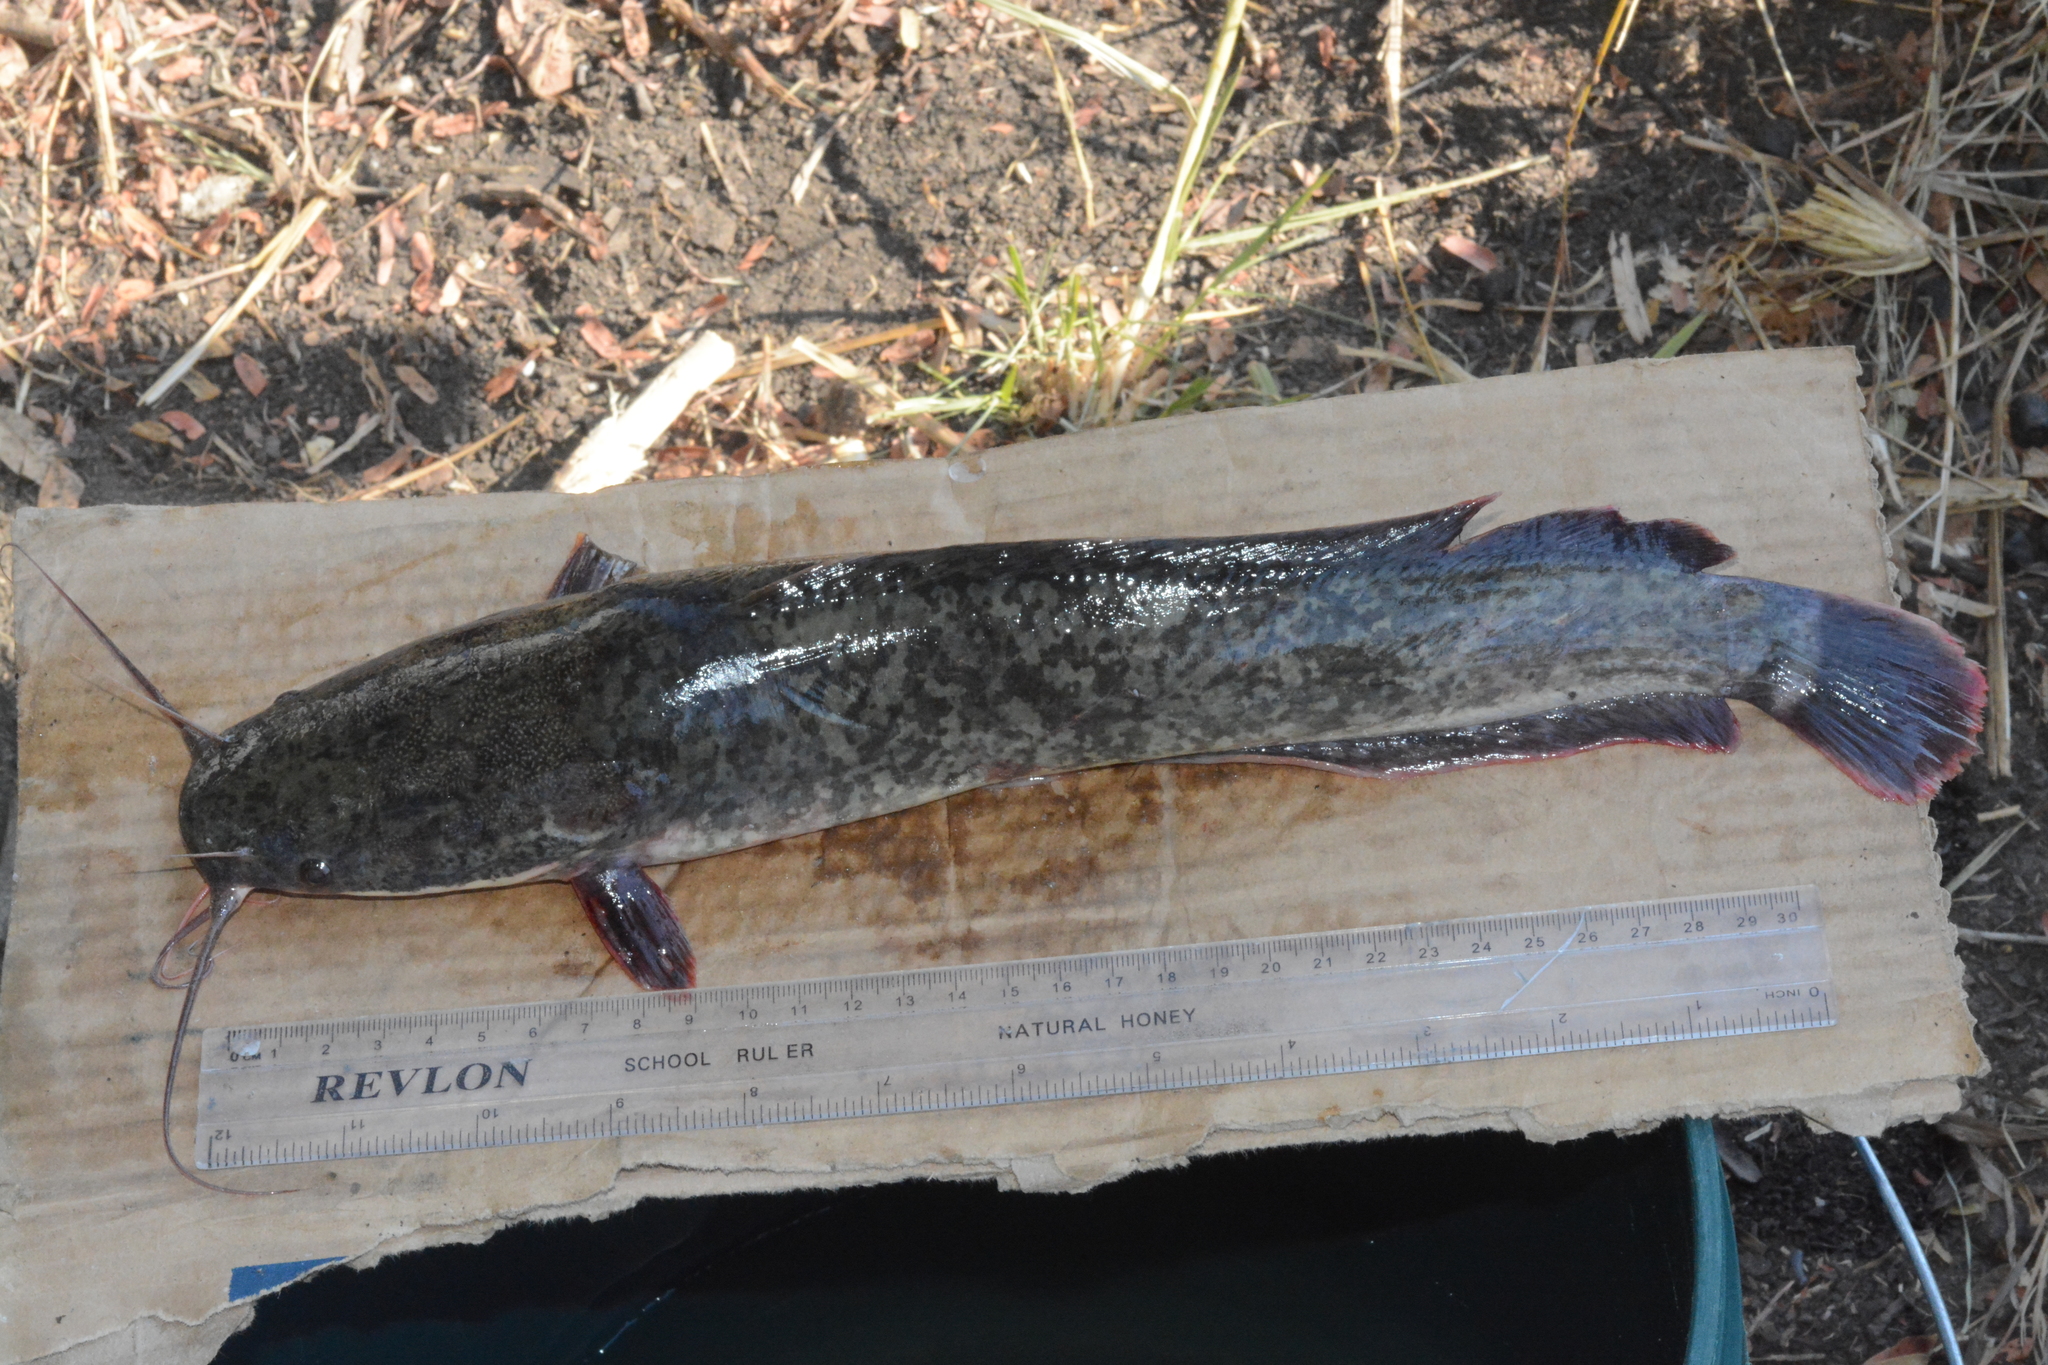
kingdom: Animalia
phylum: Chordata
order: Siluriformes
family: Clariidae
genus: Clarias
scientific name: Clarias gariepinus
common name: African catfish
